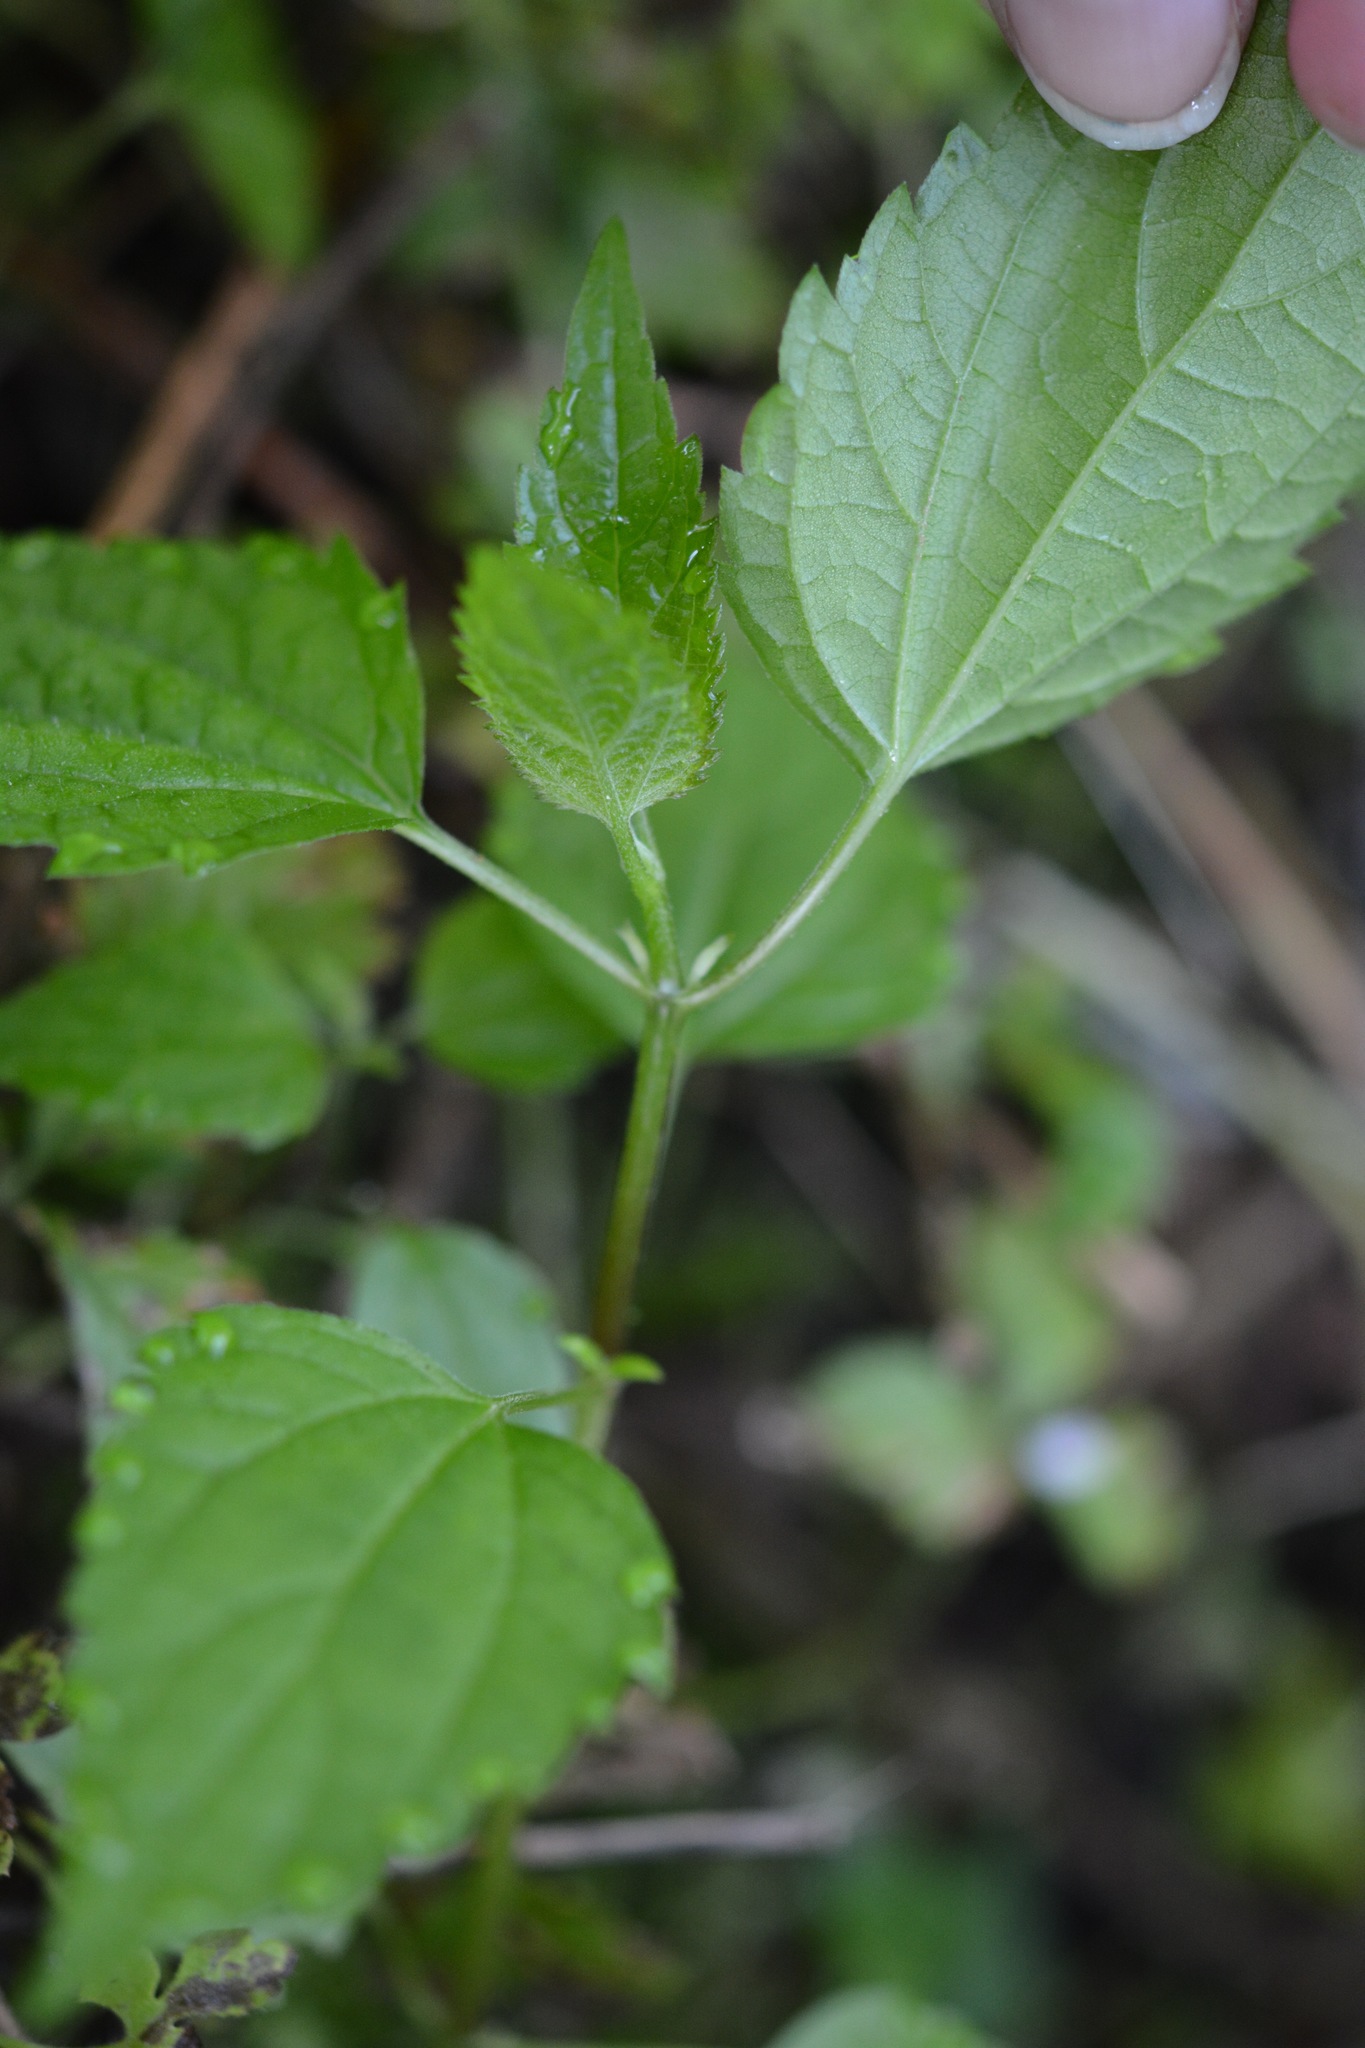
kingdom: Plantae
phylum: Tracheophyta
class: Magnoliopsida
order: Rosales
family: Urticaceae
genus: Boehmeria
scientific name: Boehmeria cylindrica
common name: Bog-hemp
